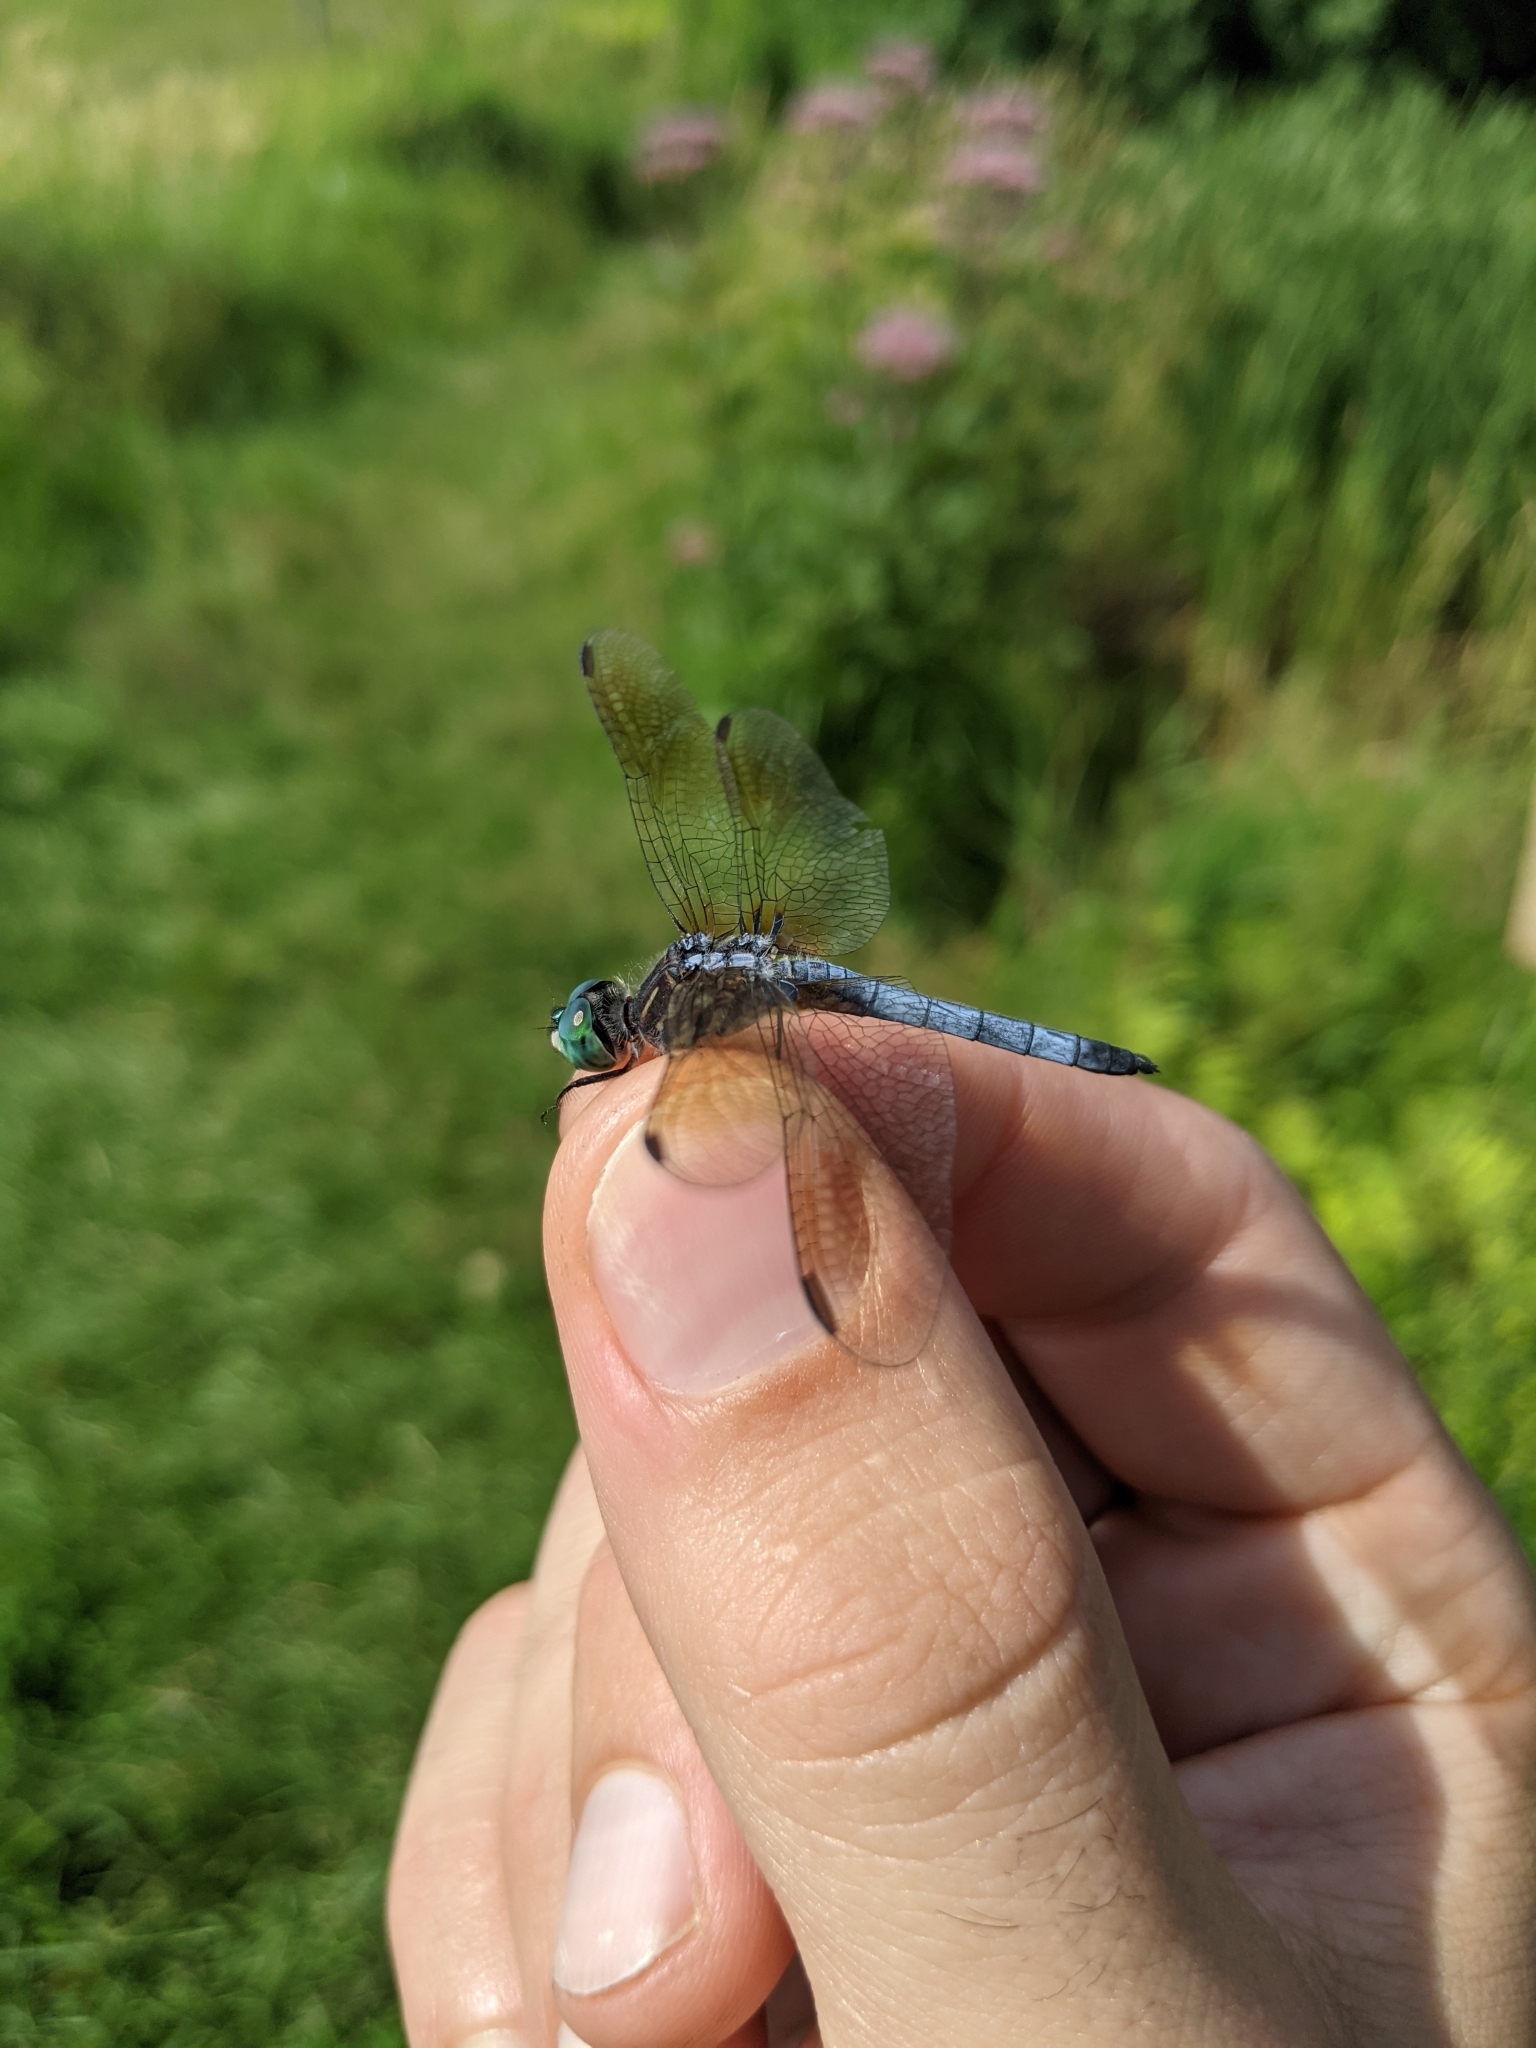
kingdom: Animalia
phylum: Arthropoda
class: Insecta
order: Odonata
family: Libellulidae
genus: Pachydiplax
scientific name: Pachydiplax longipennis
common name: Blue dasher
